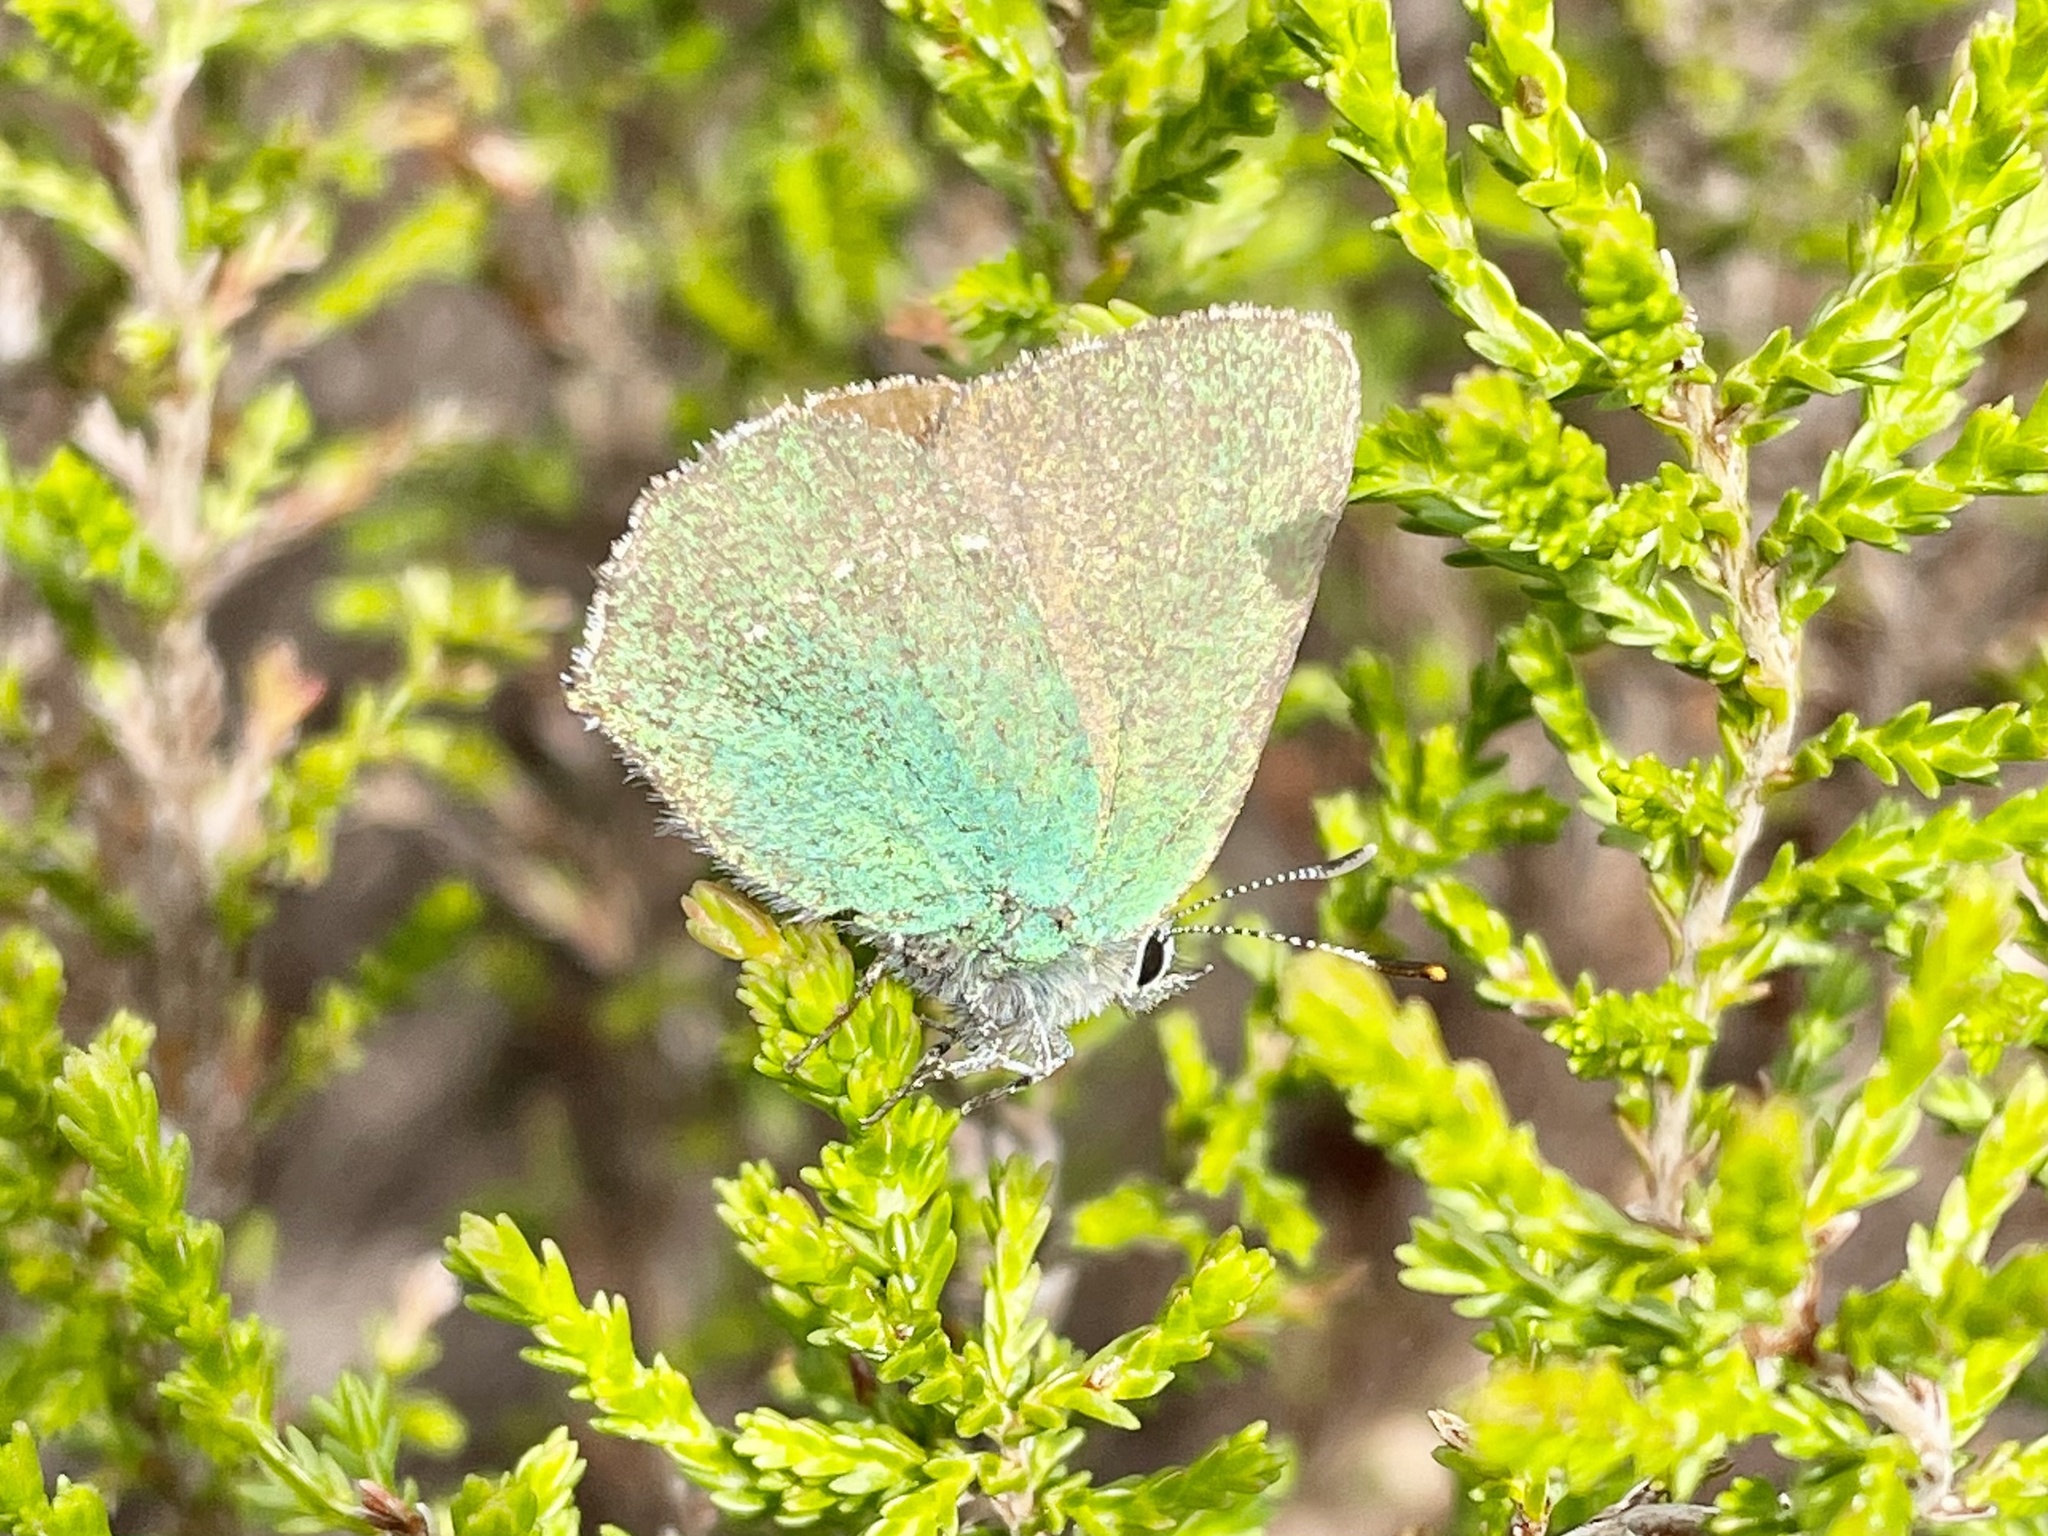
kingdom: Animalia
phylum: Arthropoda
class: Insecta
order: Lepidoptera
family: Lycaenidae
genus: Callophrys
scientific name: Callophrys rubi
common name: Green hairstreak
